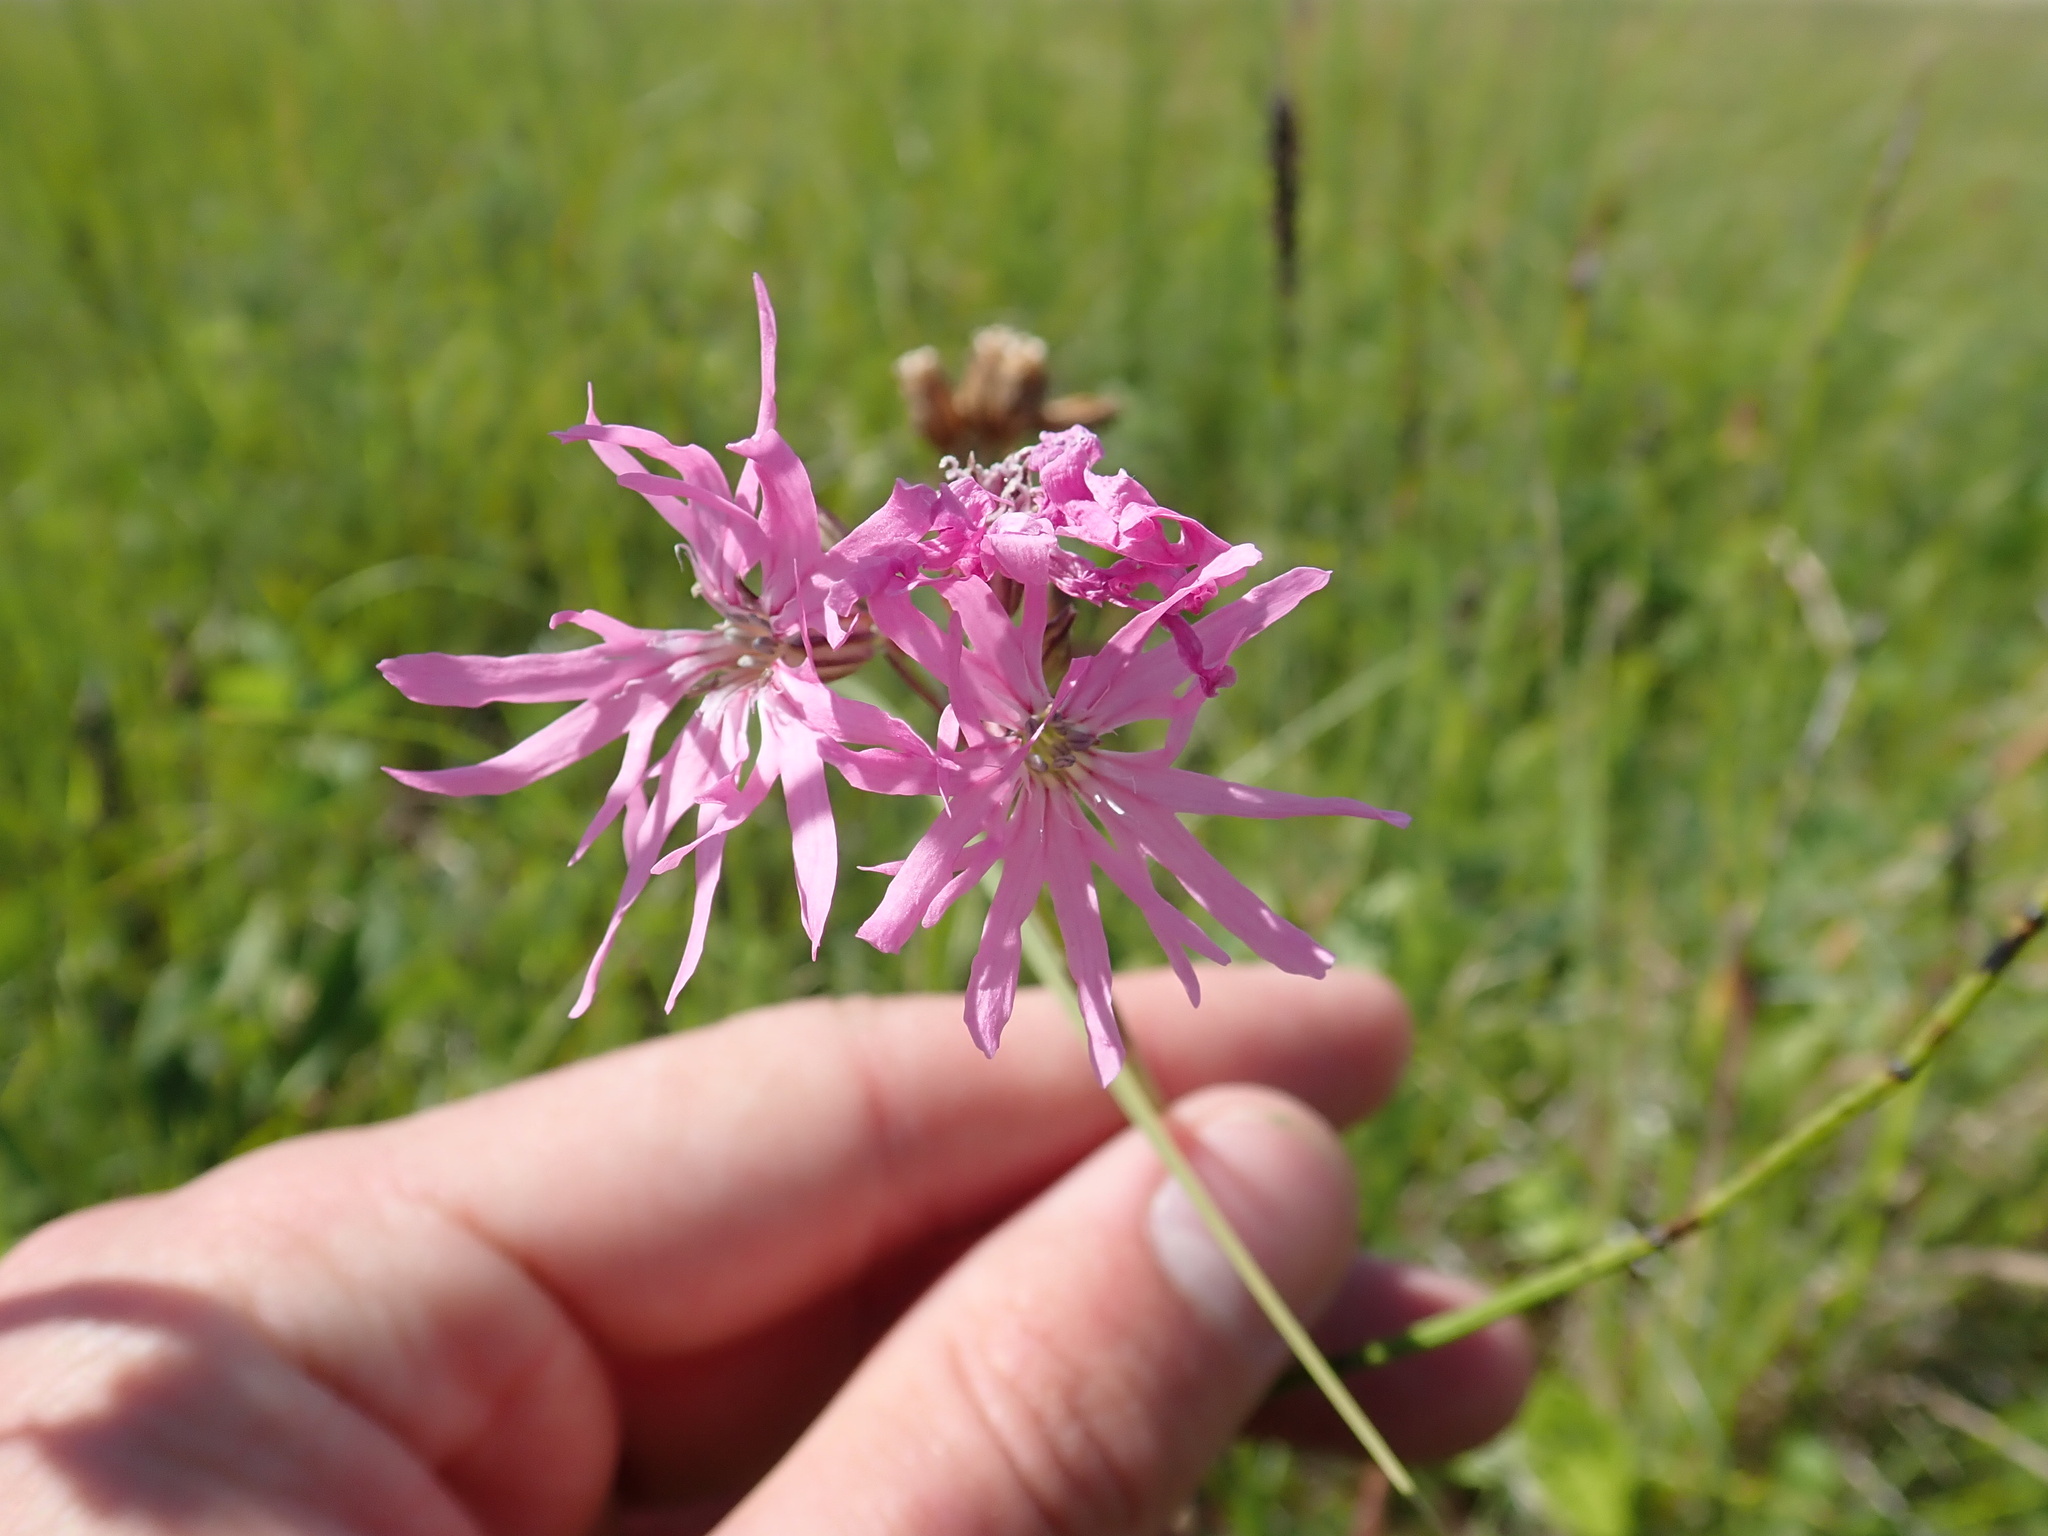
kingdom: Plantae
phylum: Tracheophyta
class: Magnoliopsida
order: Caryophyllales
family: Caryophyllaceae
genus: Silene
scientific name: Silene flos-cuculi
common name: Ragged-robin
